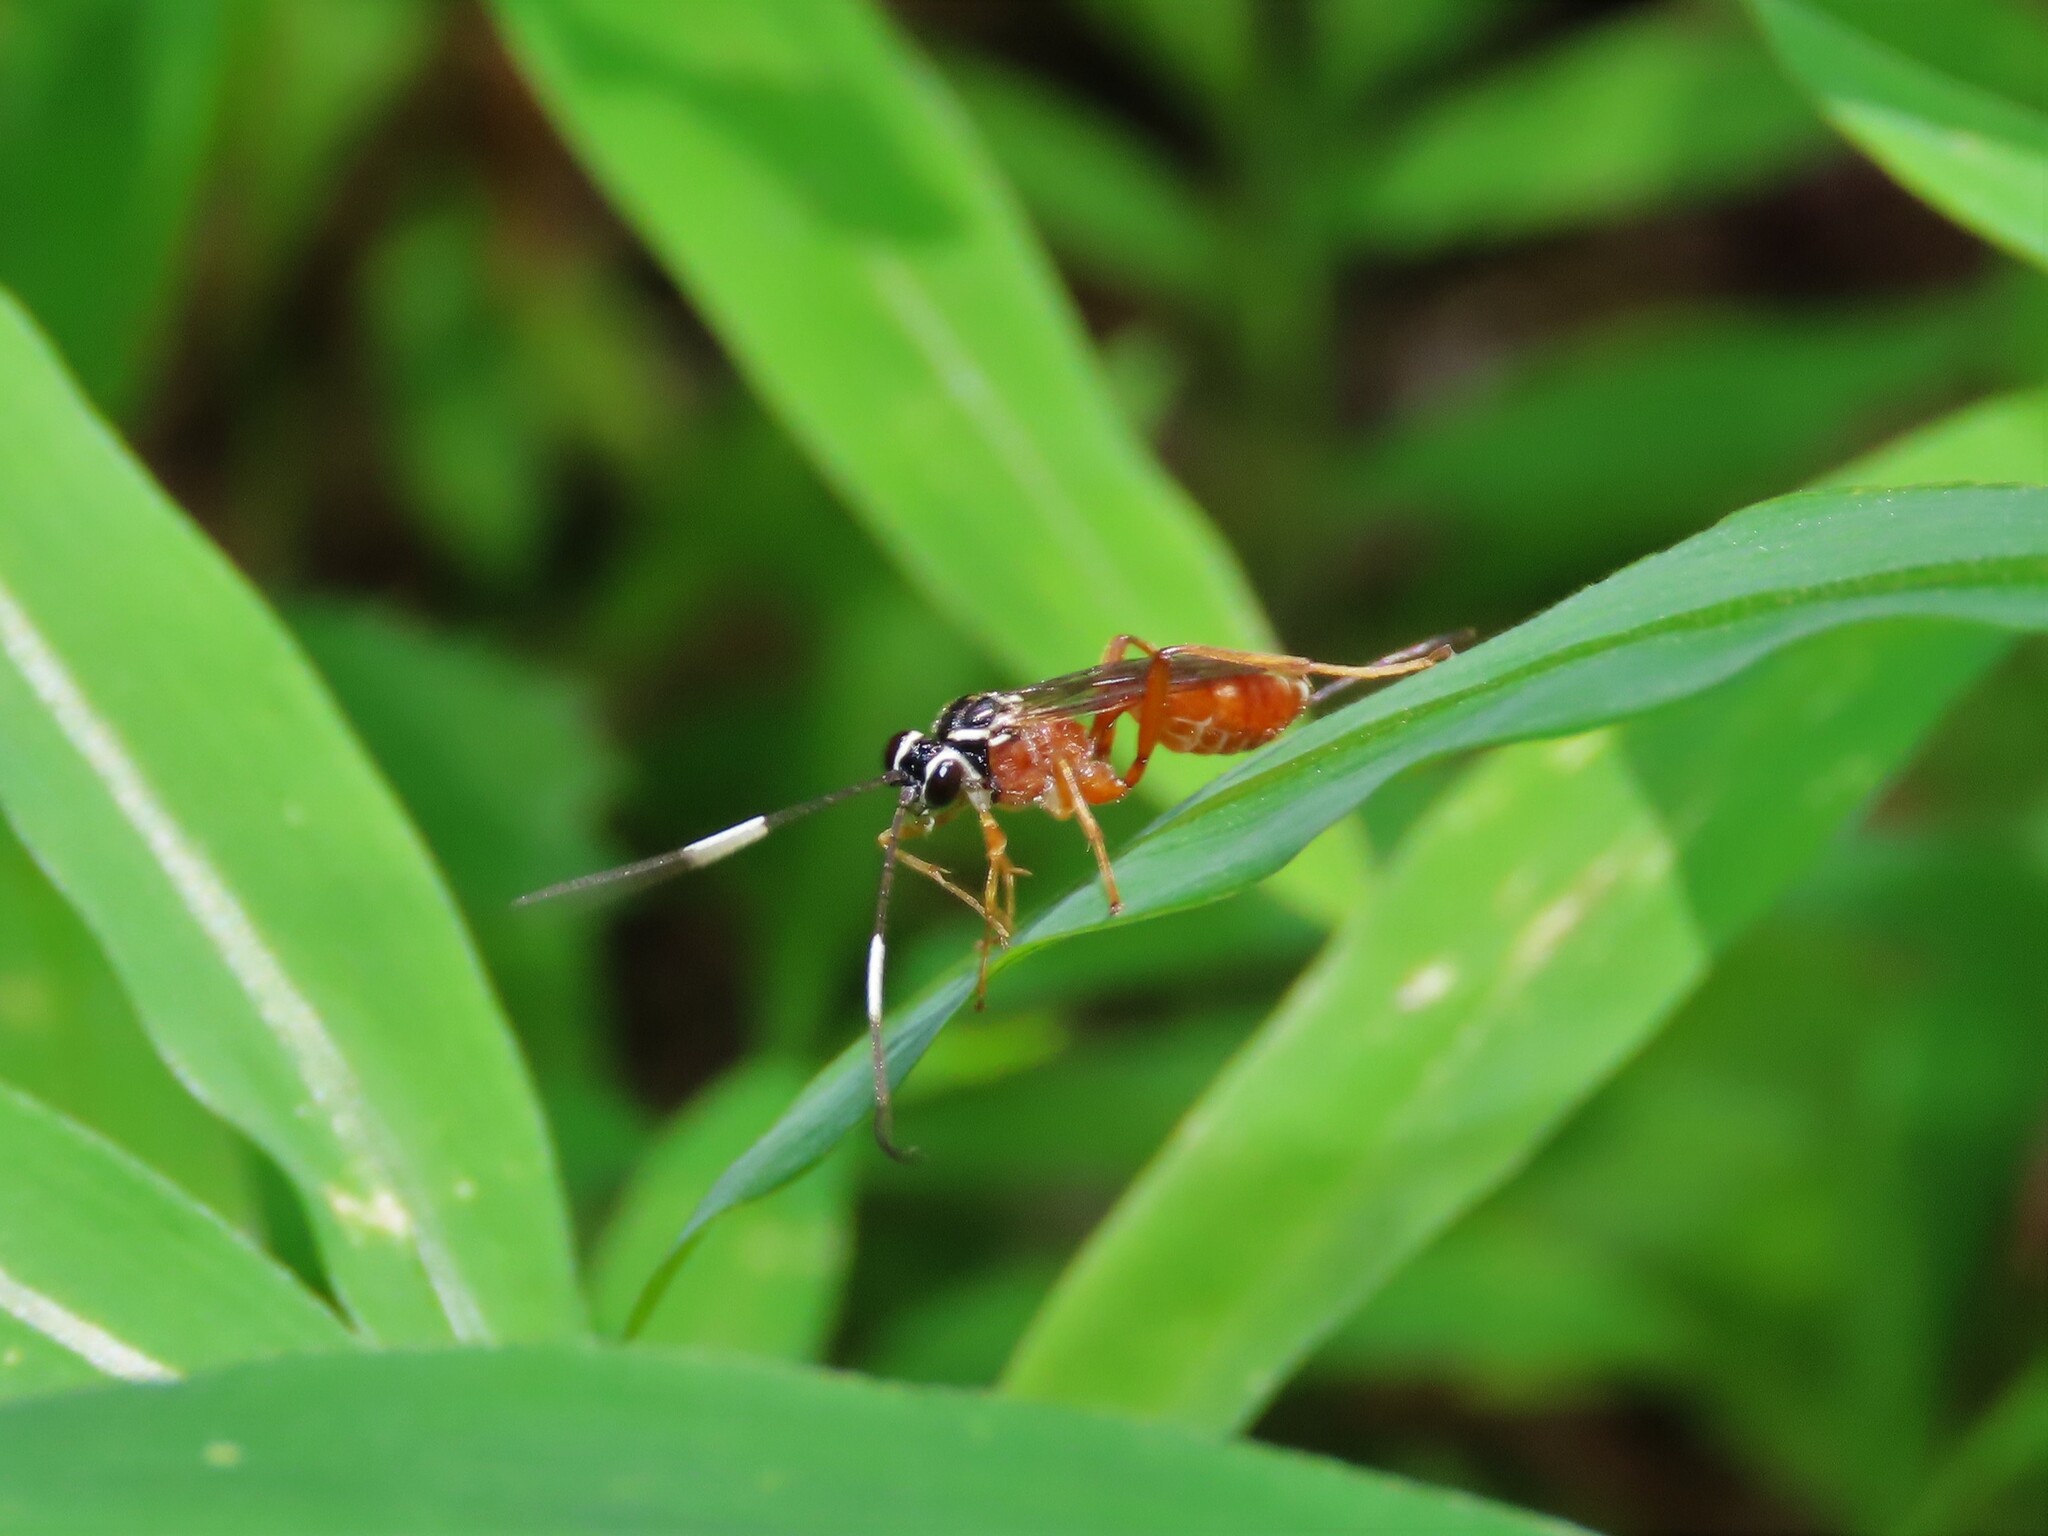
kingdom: Animalia
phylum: Arthropoda
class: Insecta
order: Hymenoptera
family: Ichneumonidae
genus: Mesostenus
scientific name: Mesostenus thoracicus
